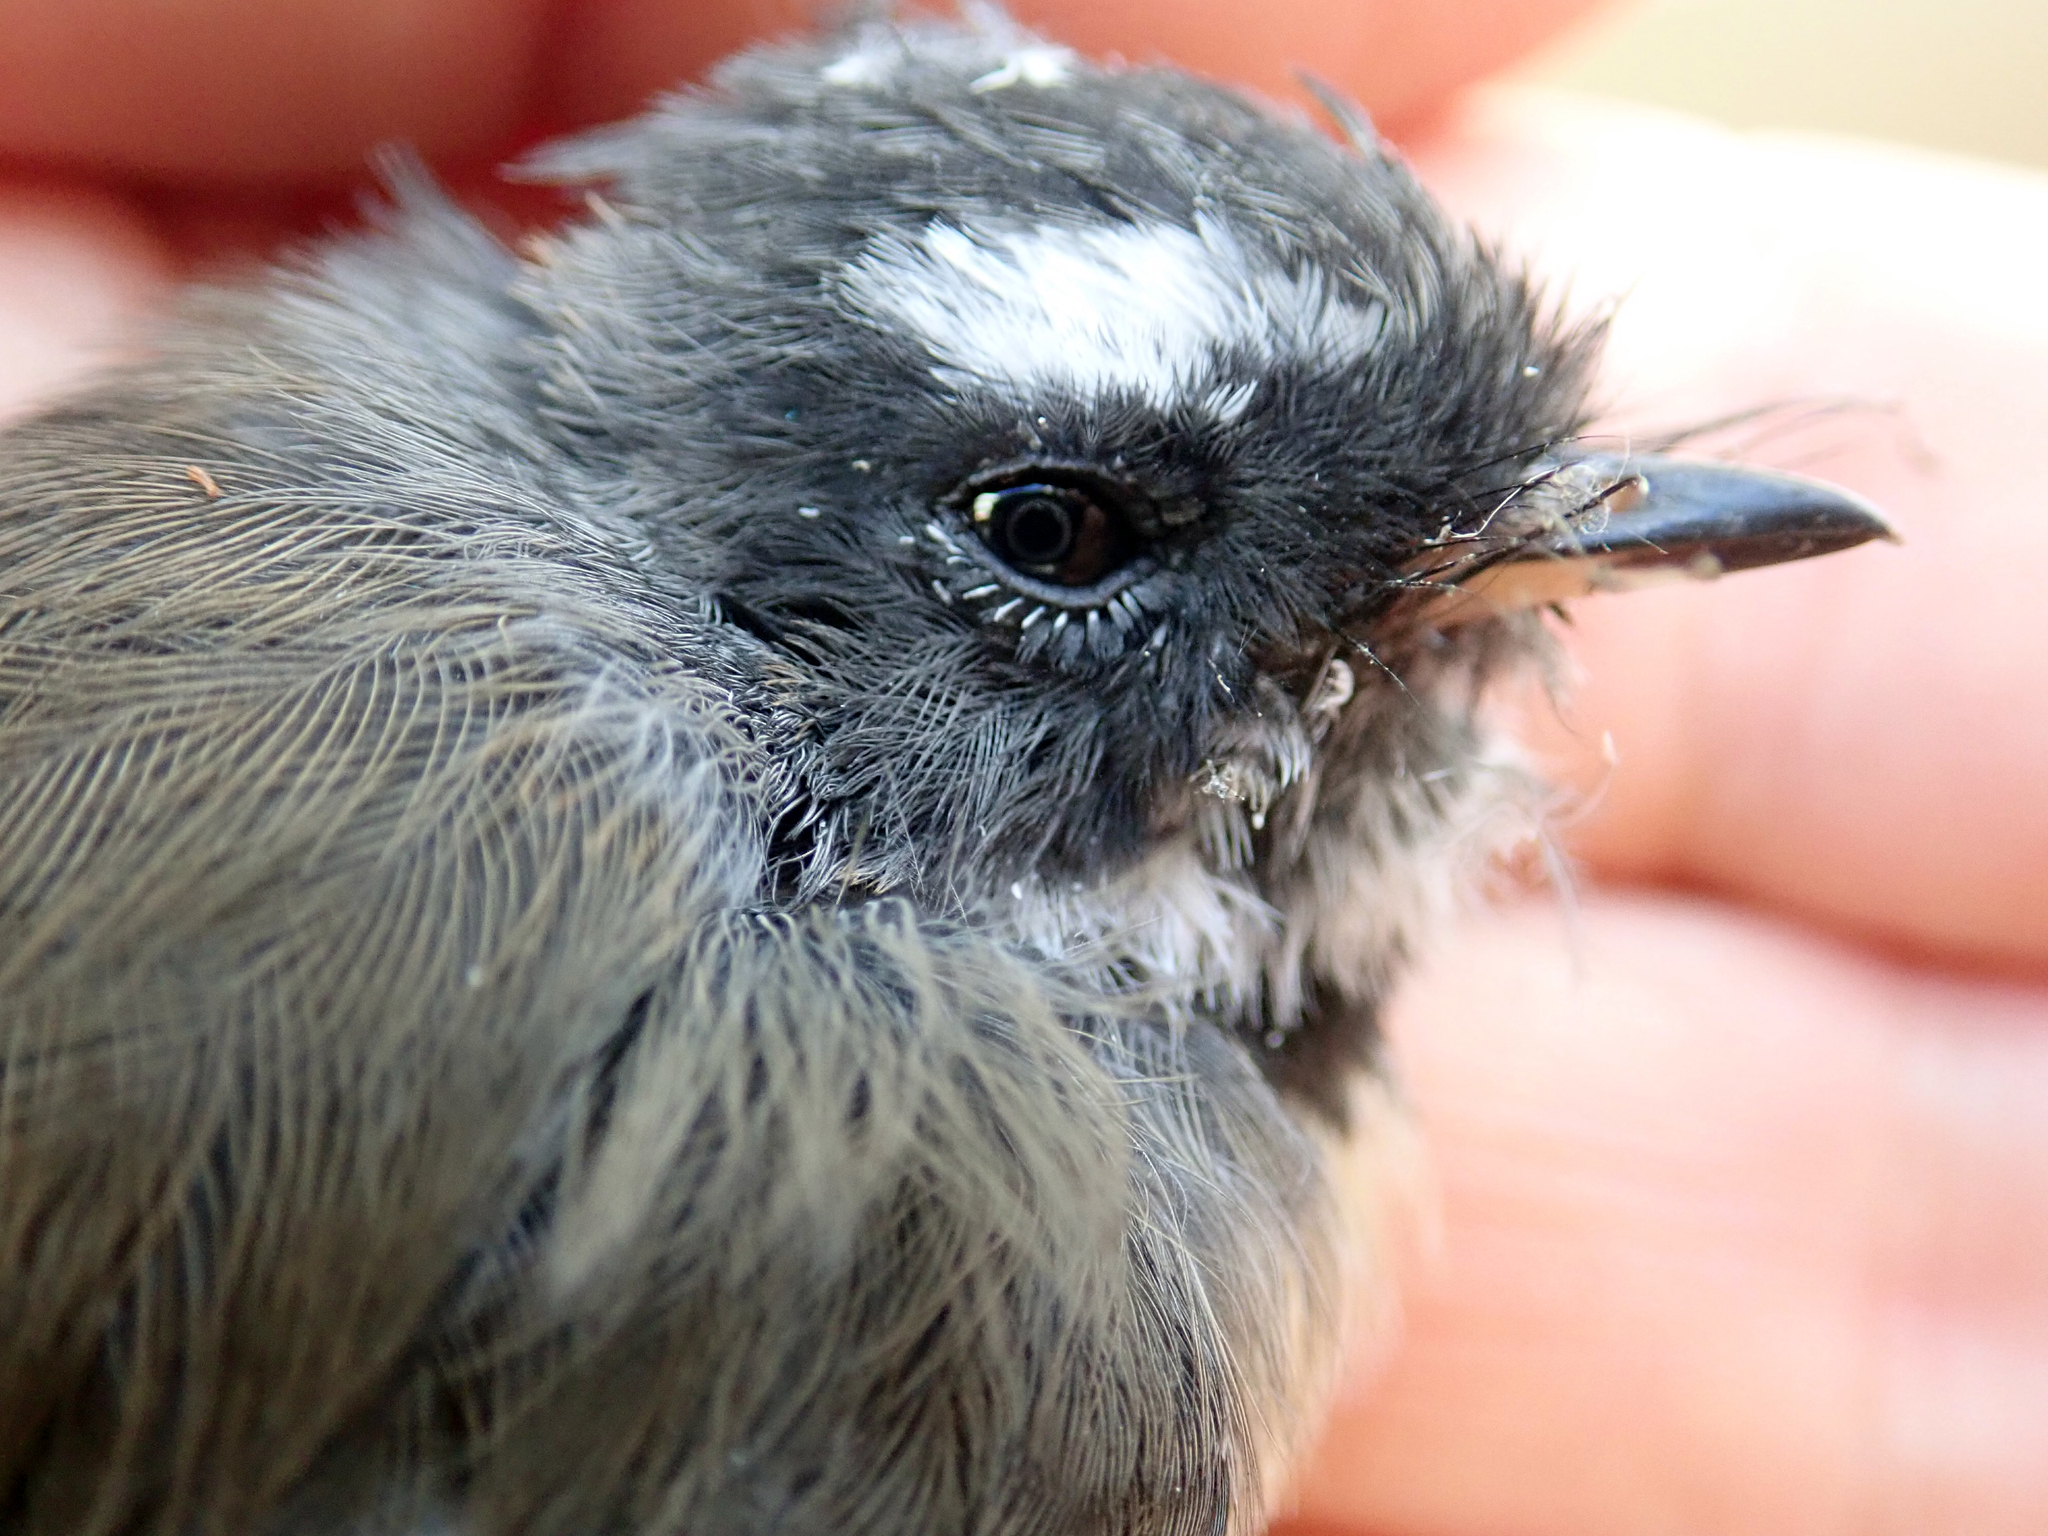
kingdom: Animalia
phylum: Chordata
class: Aves
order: Passeriformes
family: Rhipiduridae
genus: Rhipidura
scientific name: Rhipidura fuliginosa
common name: New zealand fantail
